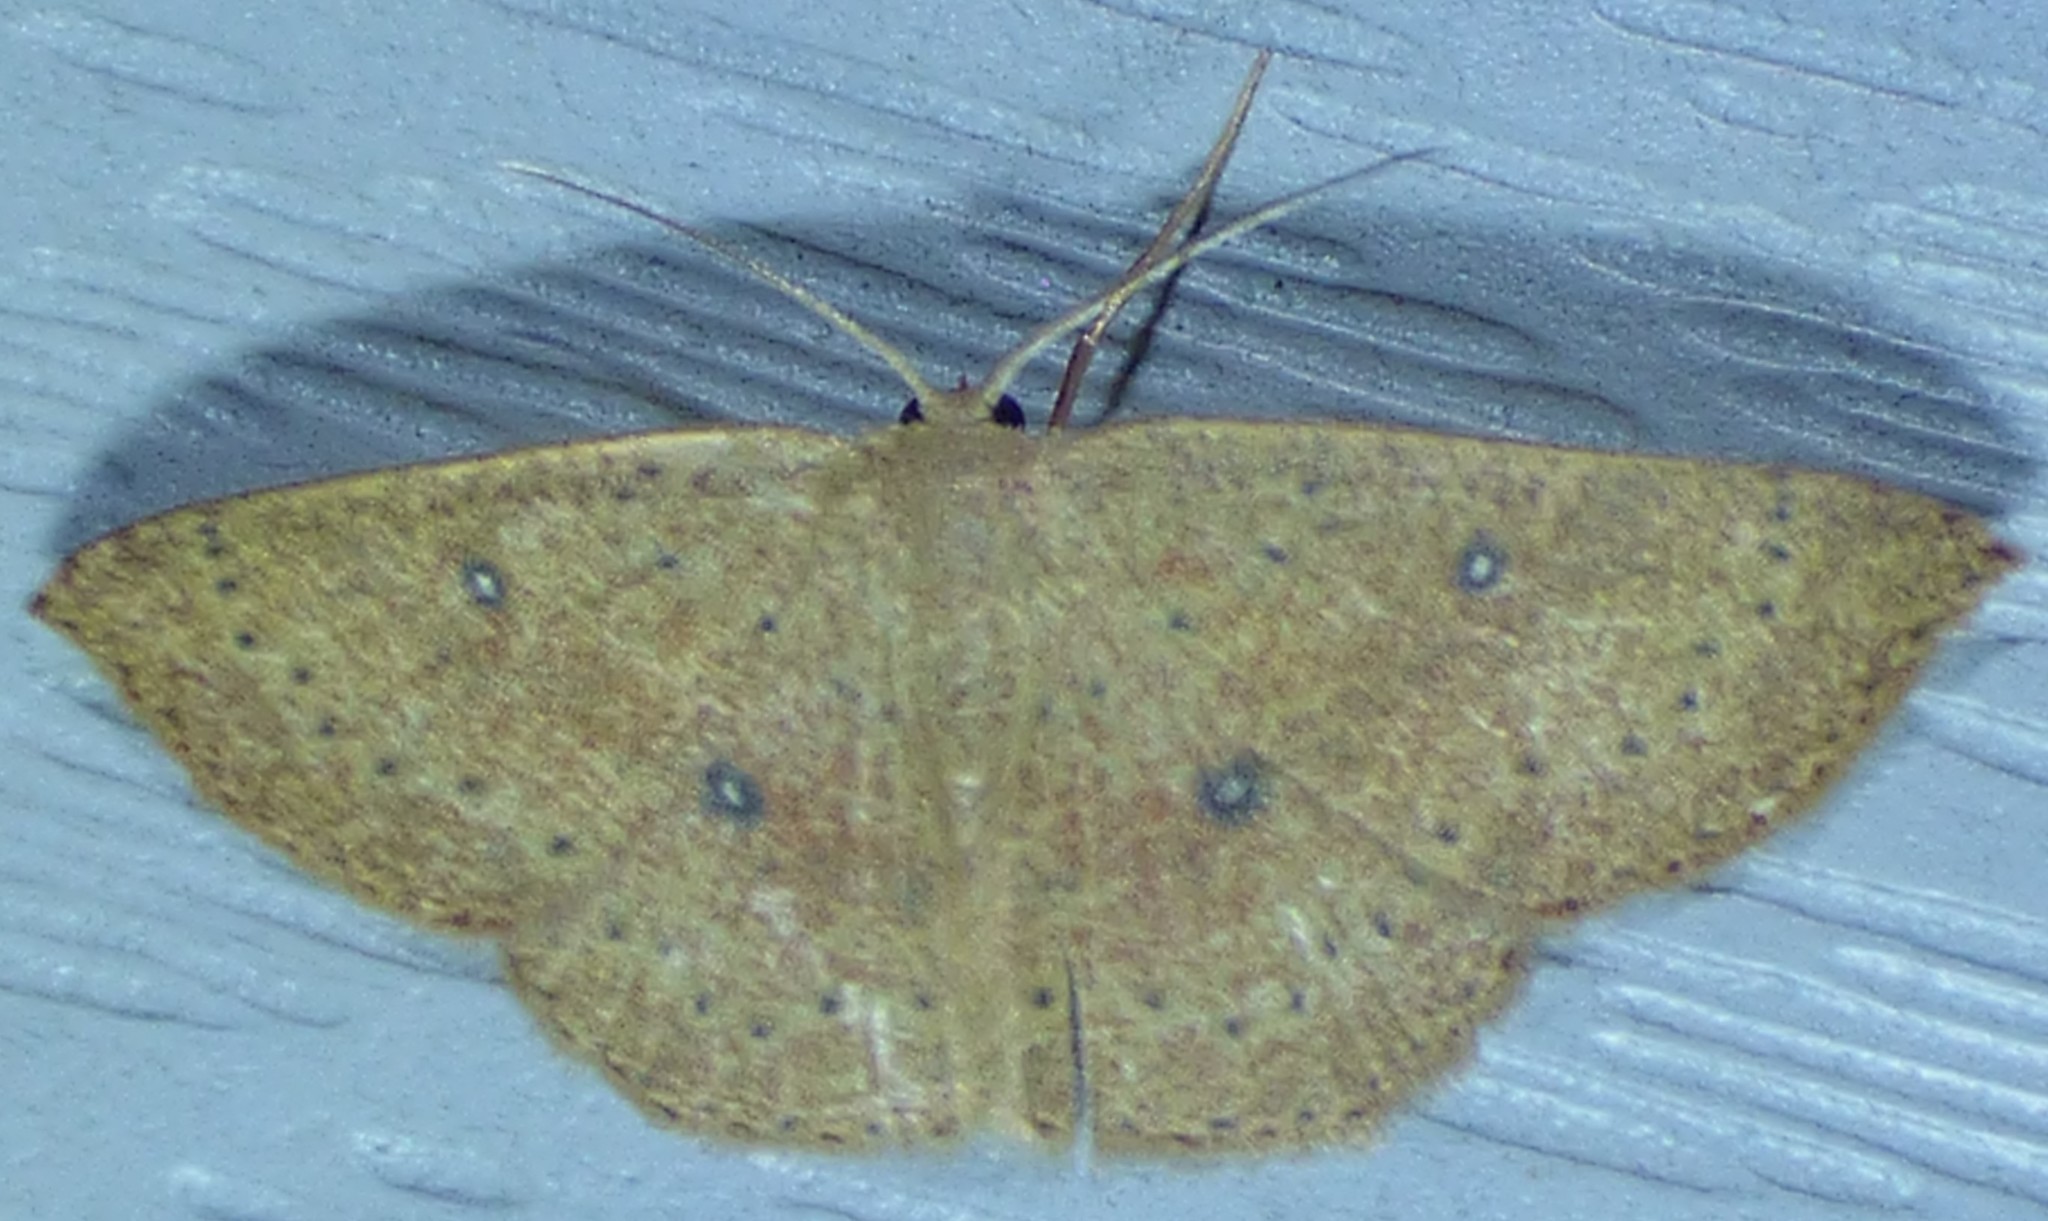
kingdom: Animalia
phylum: Arthropoda
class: Insecta
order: Lepidoptera
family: Geometridae
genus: Cyclophora
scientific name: Cyclophora packardi
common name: Packard's wave
